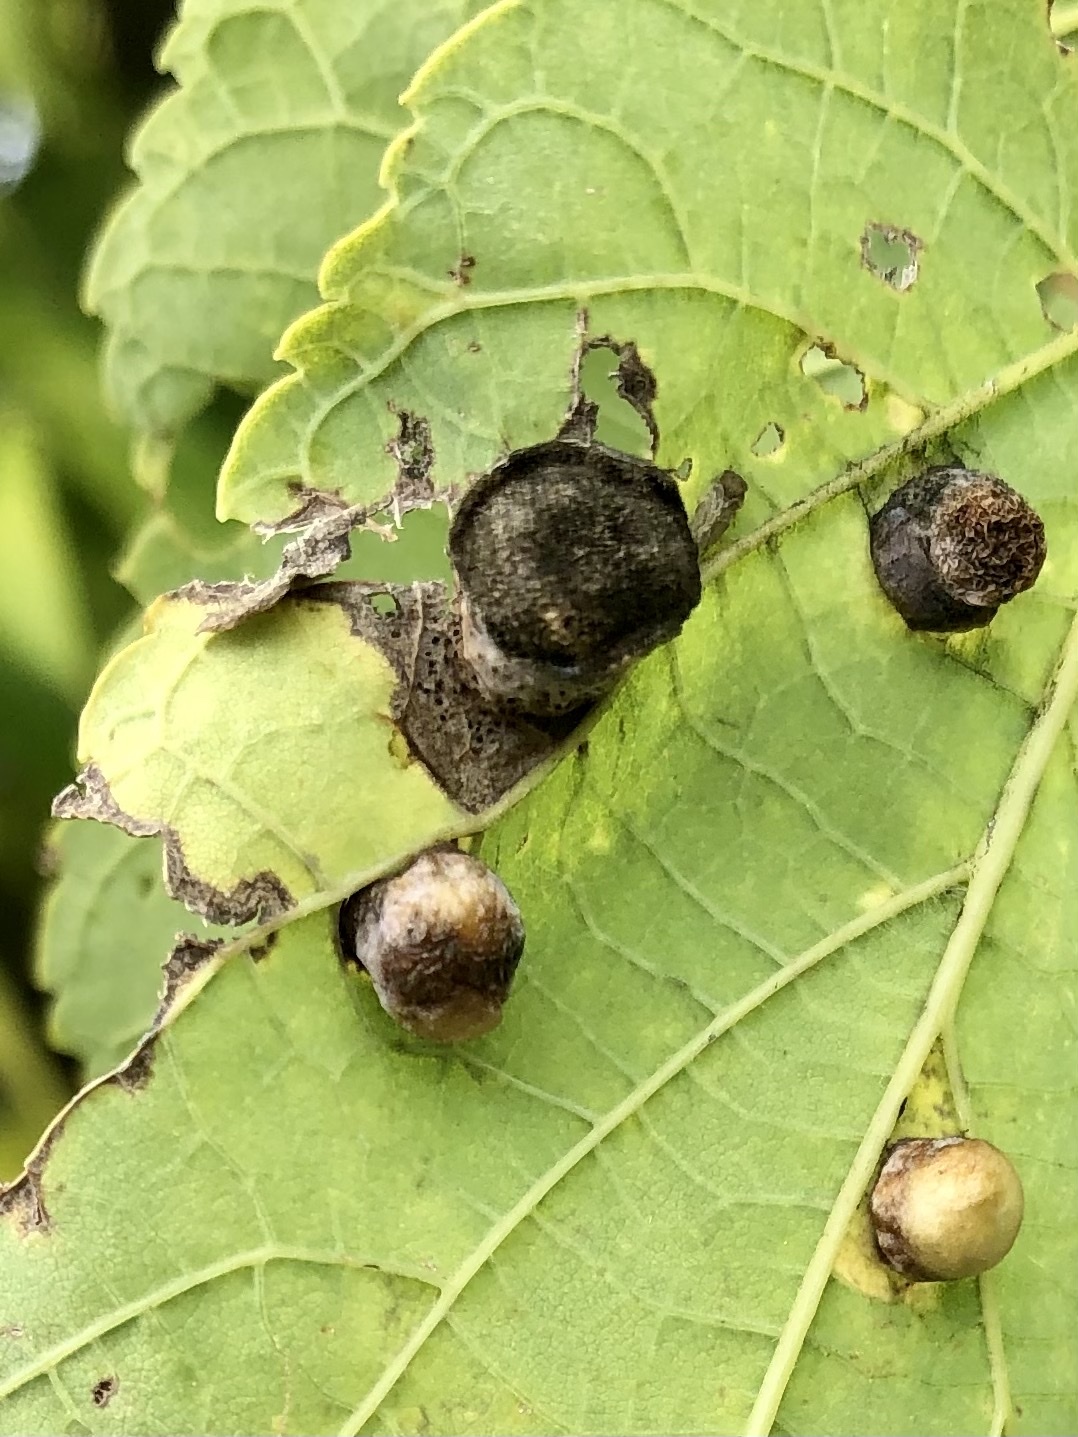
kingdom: Animalia
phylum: Arthropoda
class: Insecta
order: Hemiptera
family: Aphalaridae
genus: Pachypsylla
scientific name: Pachypsylla celtidismamma
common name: Hackberry nipplegall psyllid
